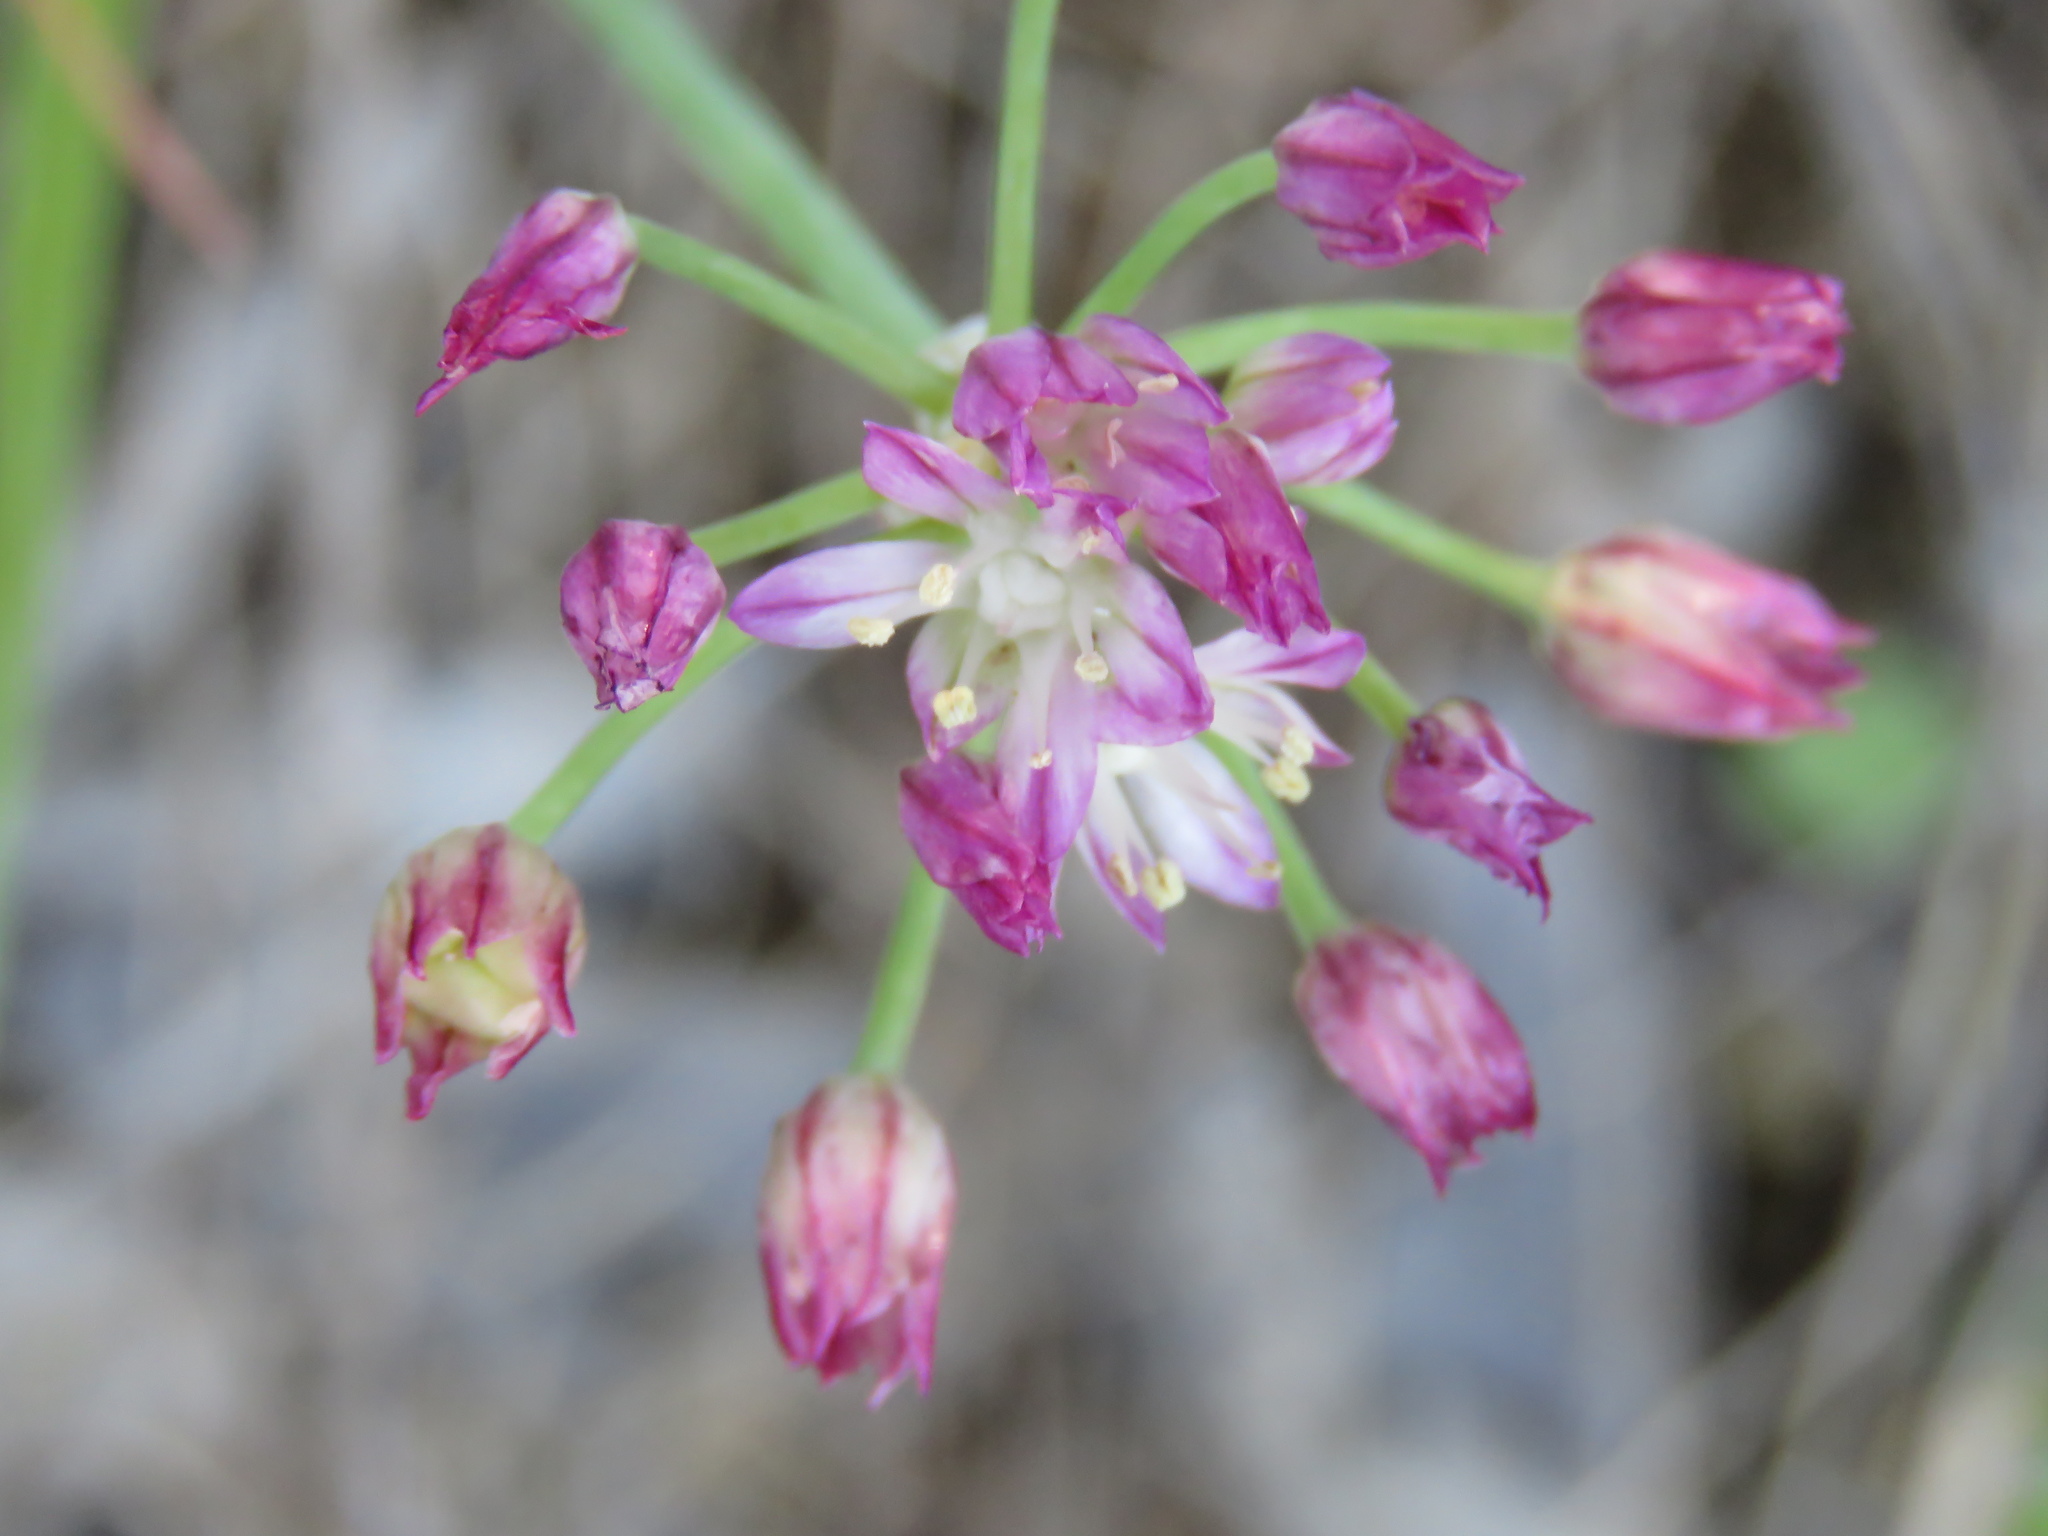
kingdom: Plantae
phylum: Tracheophyta
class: Liliopsida
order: Asparagales
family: Amaryllidaceae
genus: Allium
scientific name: Allium drummondii
